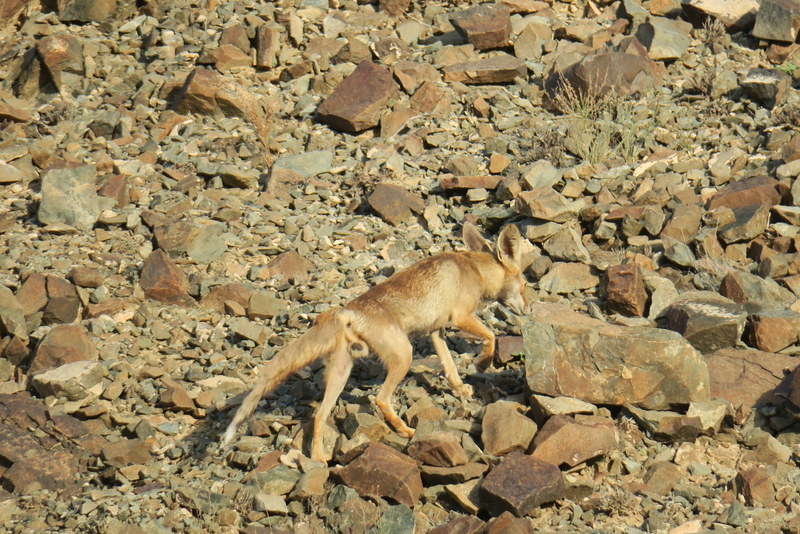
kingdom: Animalia
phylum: Chordata
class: Mammalia
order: Carnivora
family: Canidae
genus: Vulpes
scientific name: Vulpes vulpes
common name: Red fox
